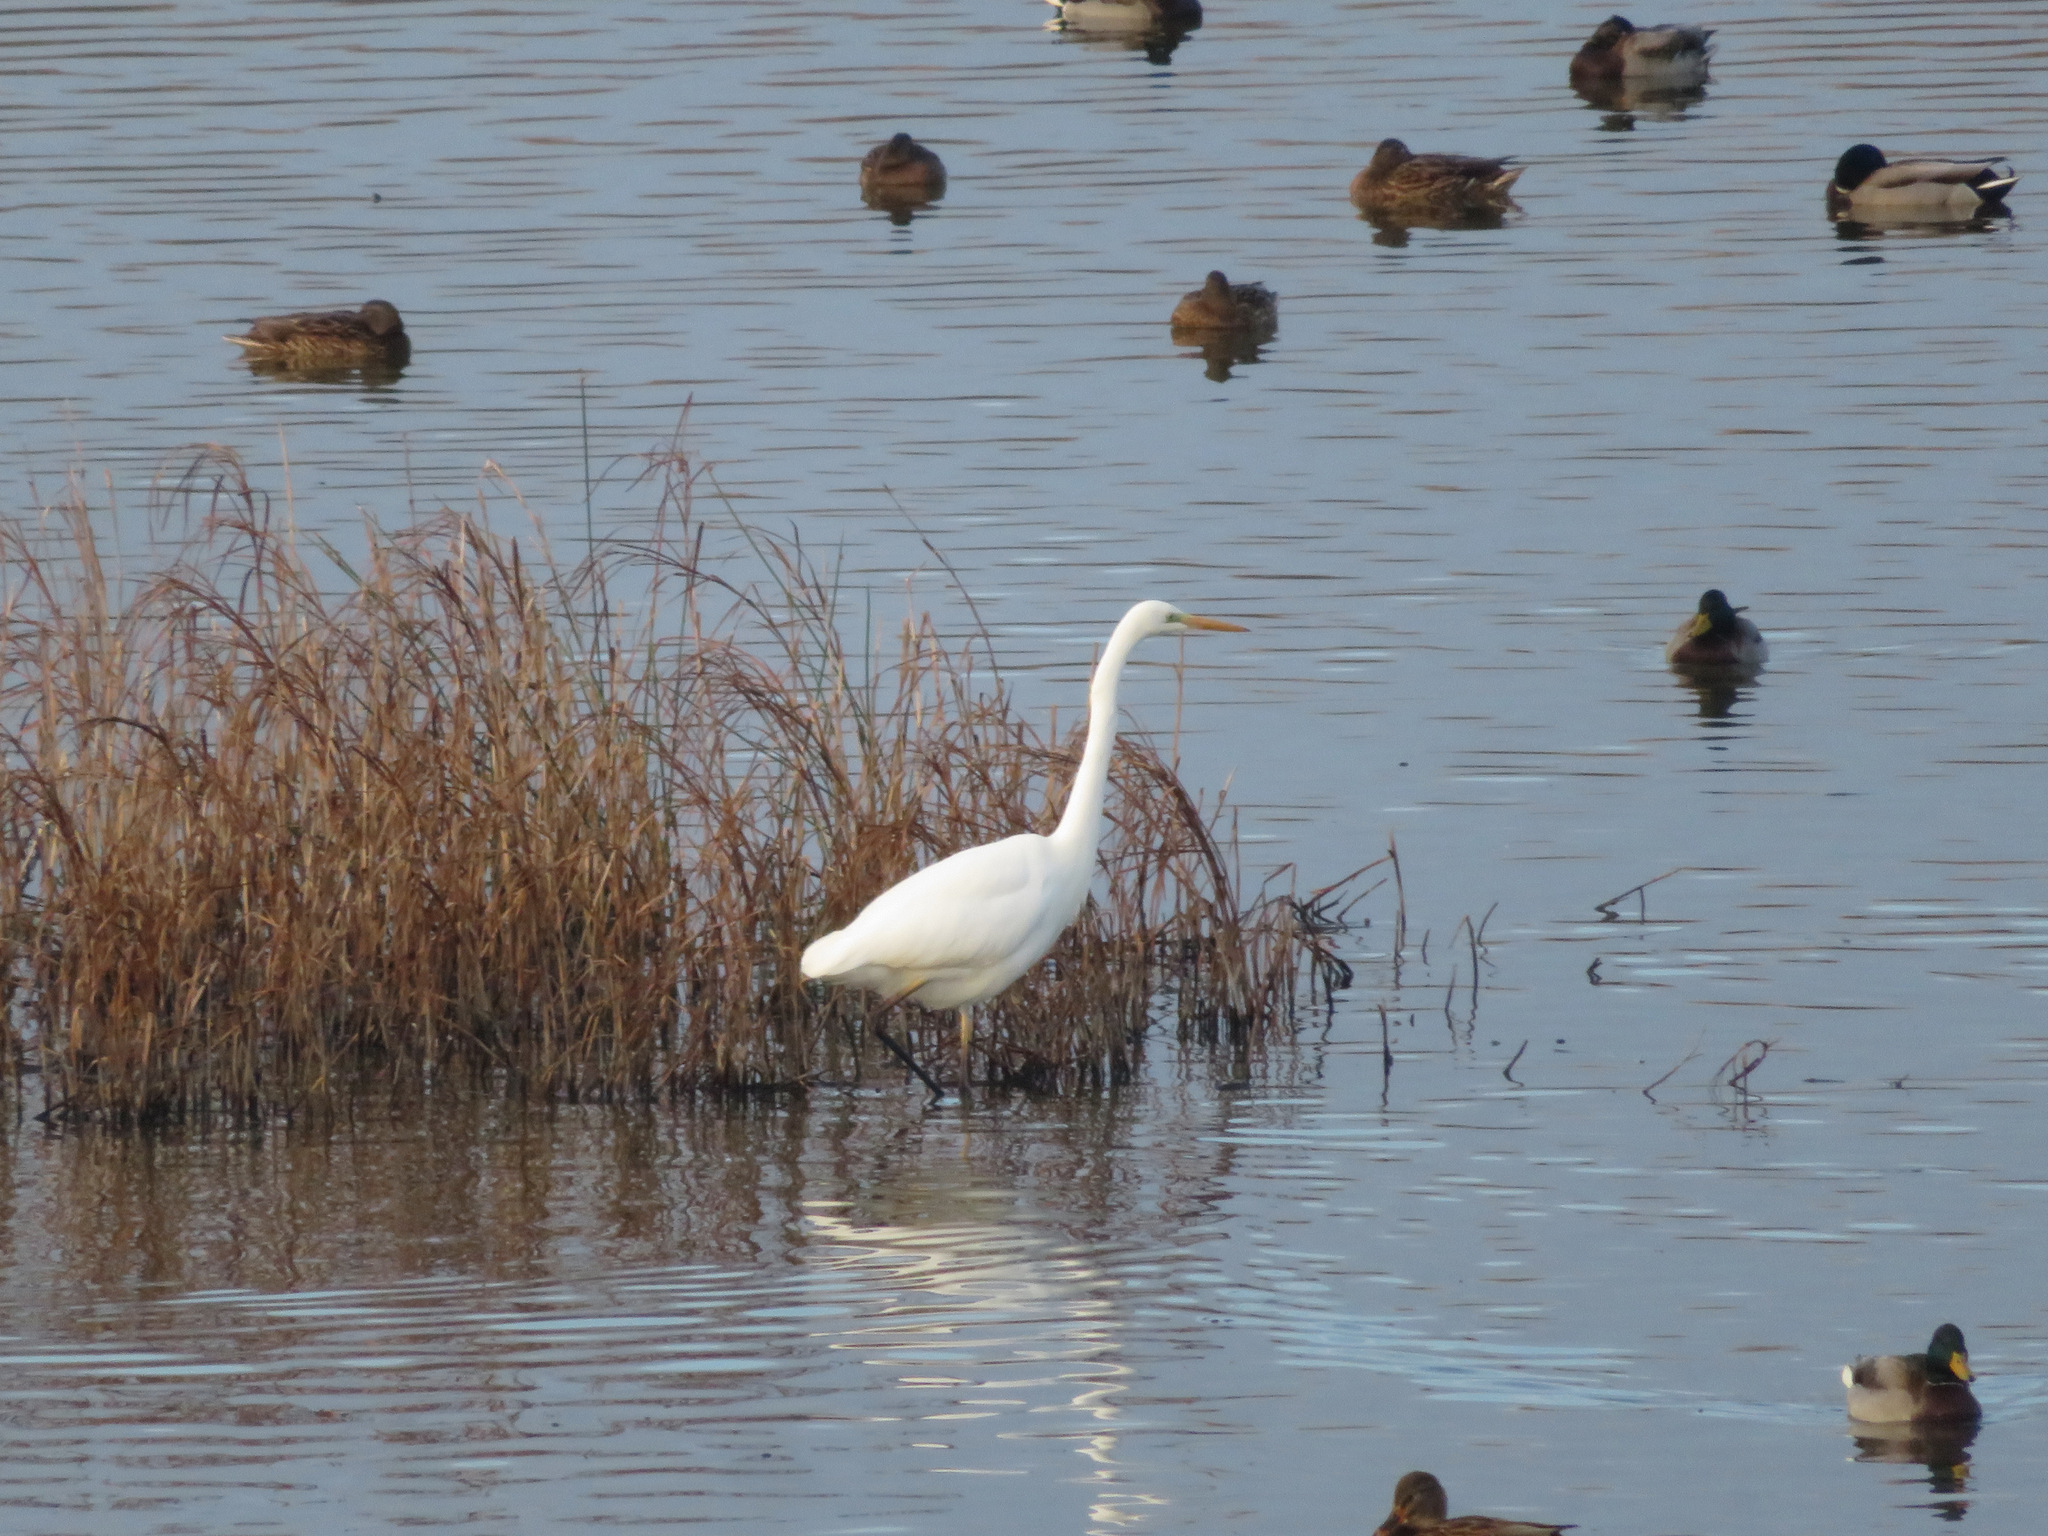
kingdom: Animalia
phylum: Chordata
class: Aves
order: Pelecaniformes
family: Ardeidae
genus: Ardea
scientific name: Ardea alba
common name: Great egret
